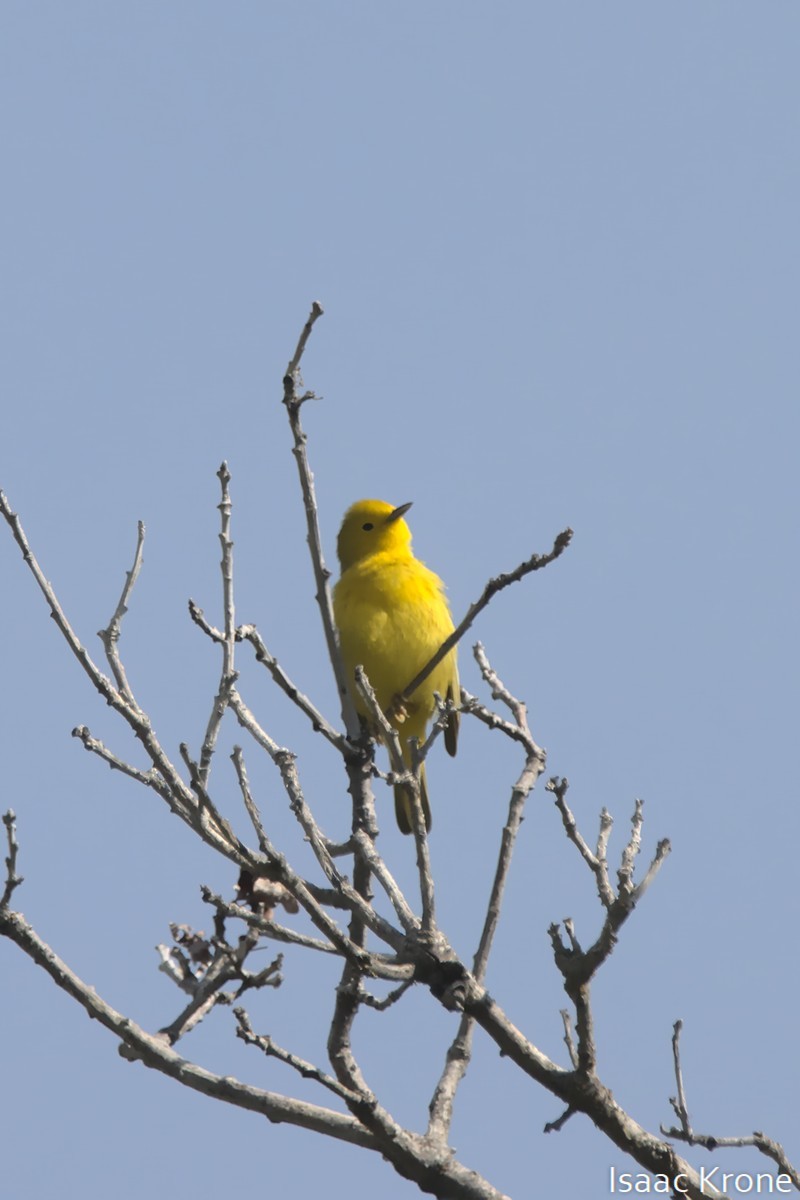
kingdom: Animalia
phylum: Chordata
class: Aves
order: Passeriformes
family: Parulidae
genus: Setophaga
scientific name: Setophaga petechia
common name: Yellow warbler
